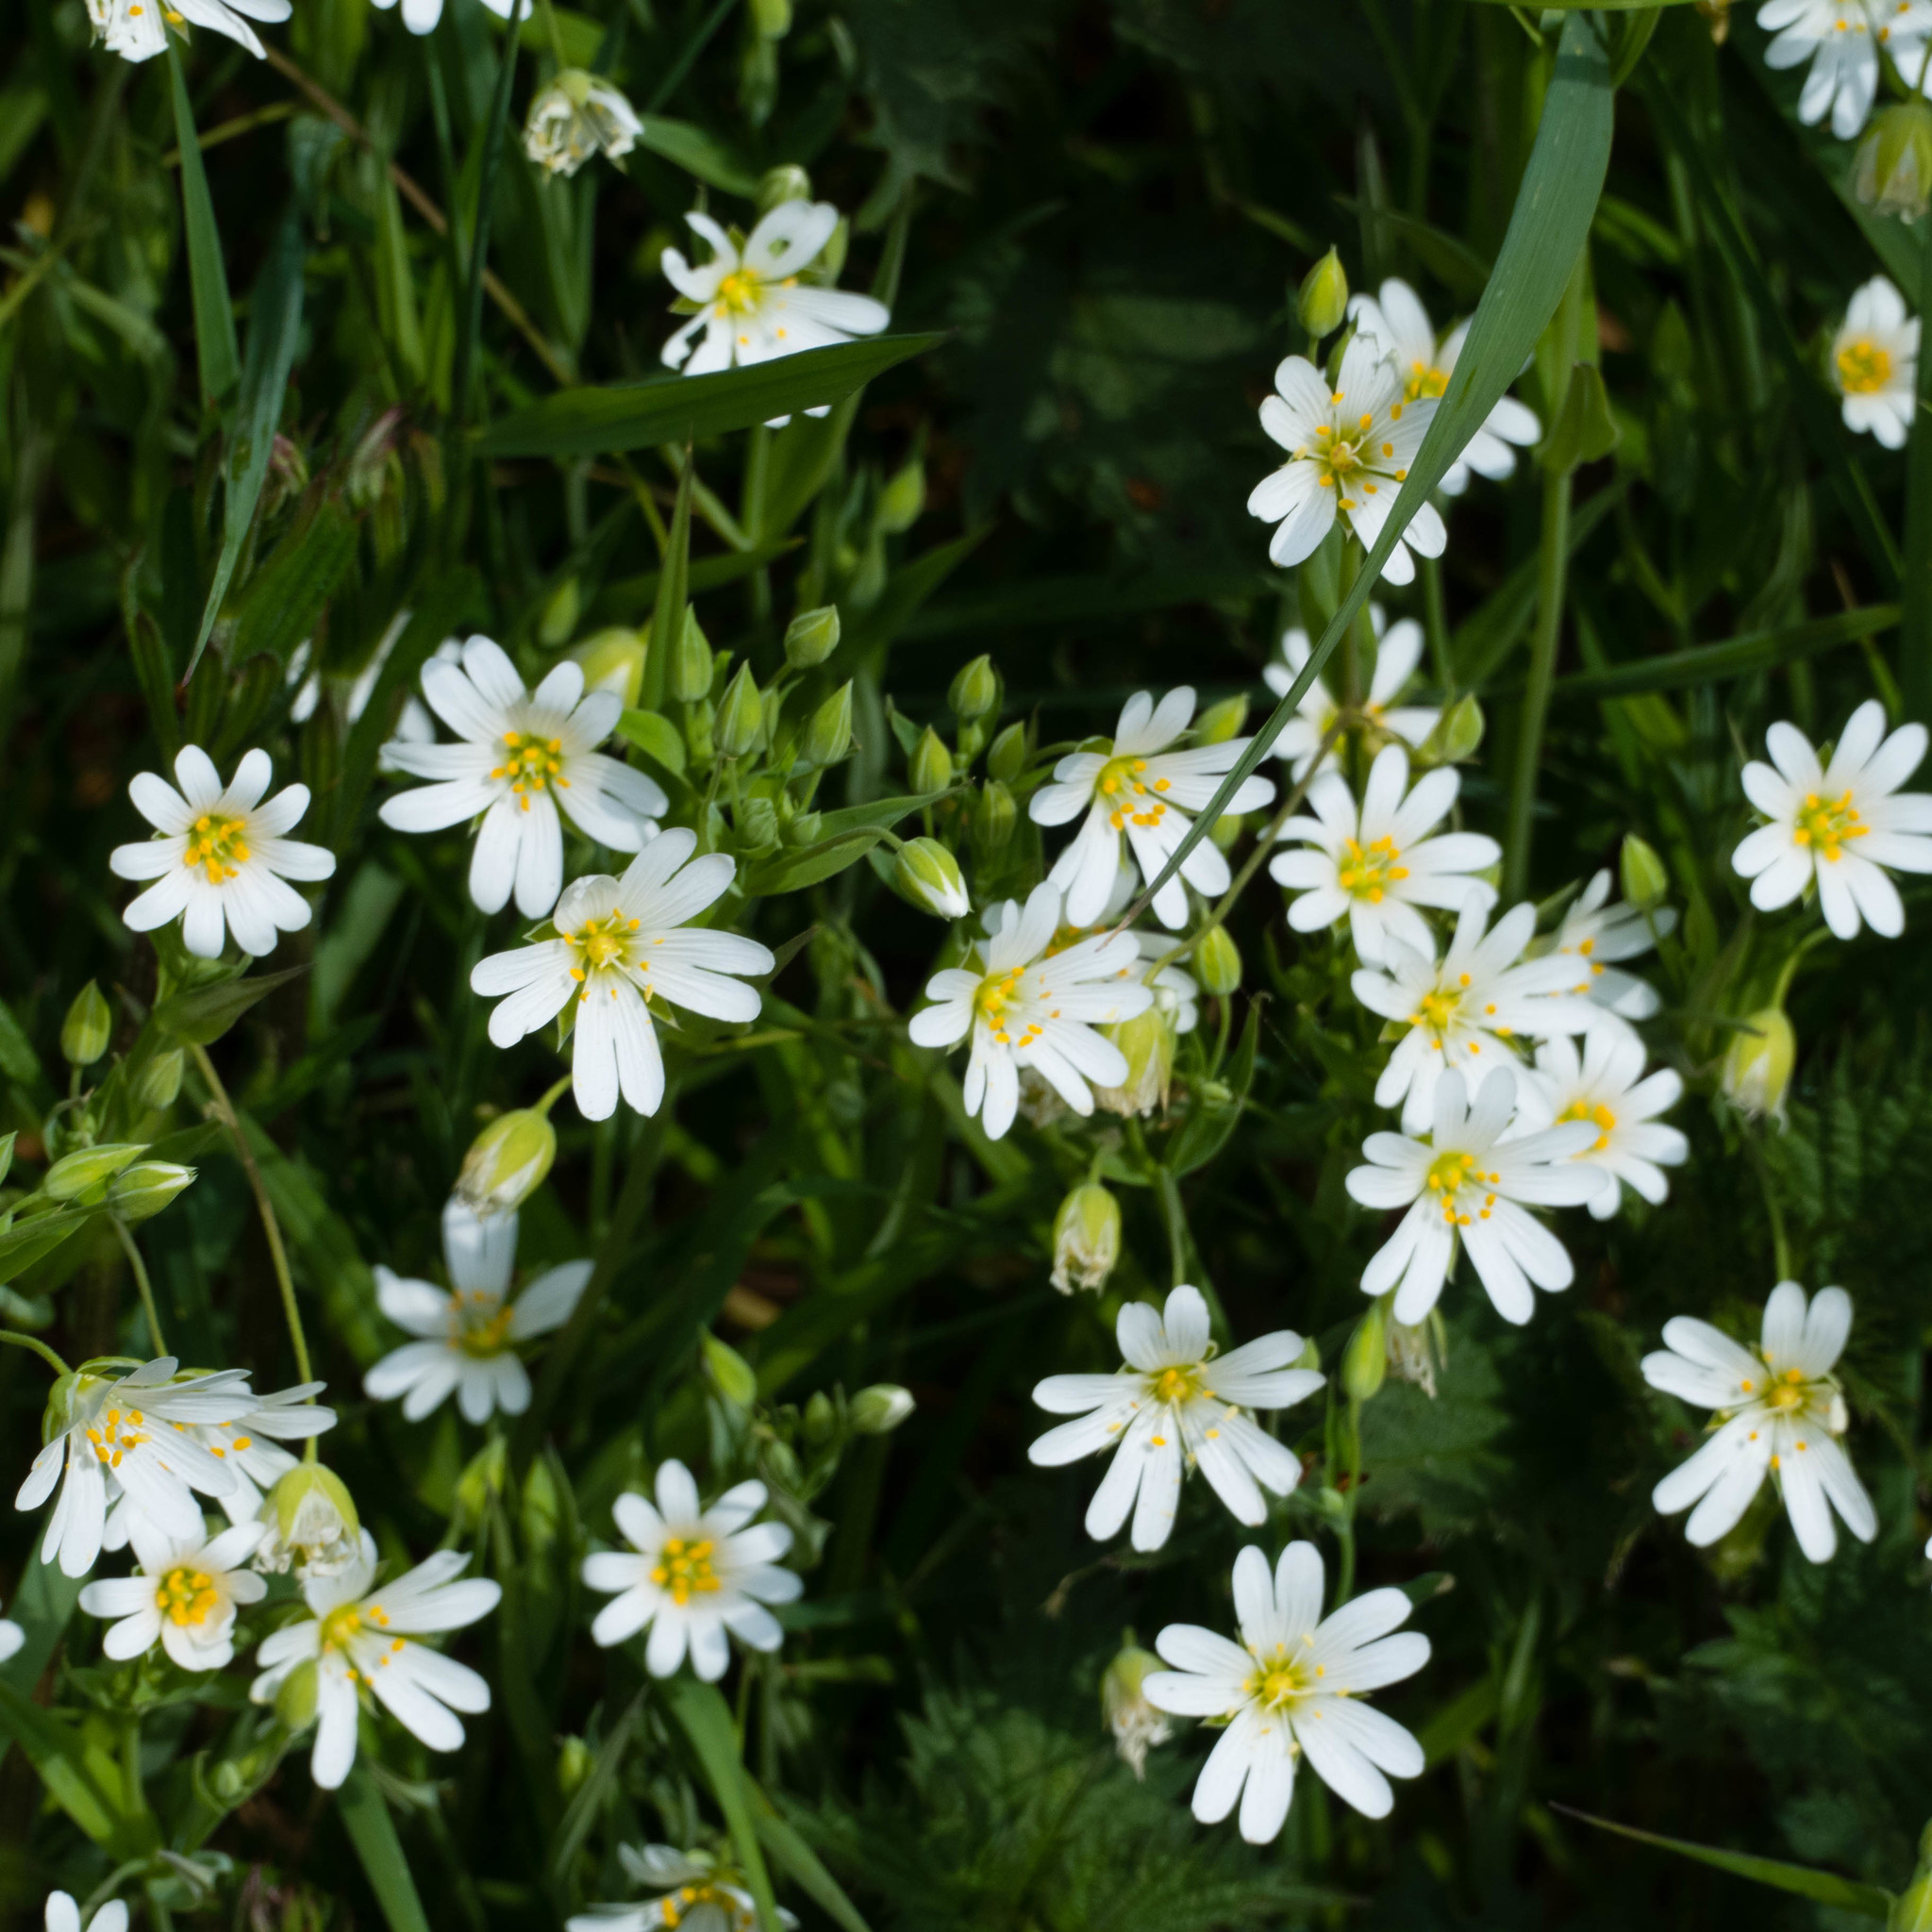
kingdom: Plantae
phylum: Tracheophyta
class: Magnoliopsida
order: Caryophyllales
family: Caryophyllaceae
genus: Rabelera
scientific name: Rabelera holostea
